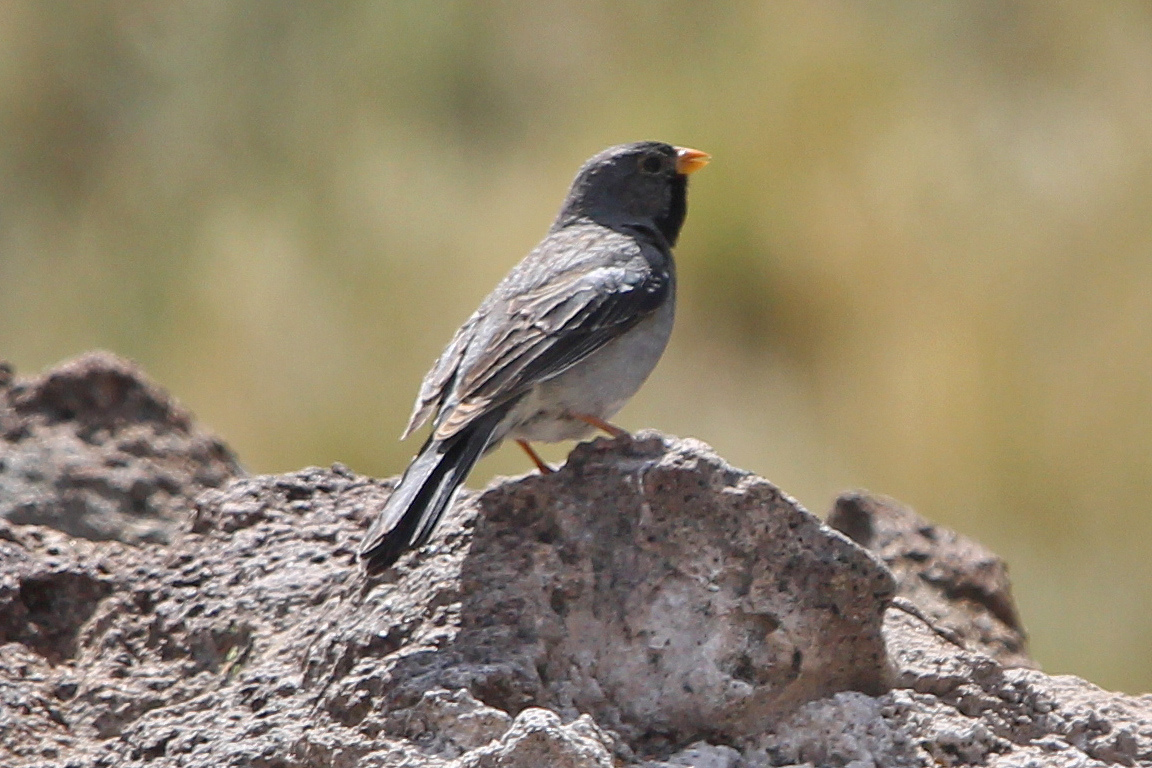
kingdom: Animalia
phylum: Chordata
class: Aves
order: Passeriformes
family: Thraupidae
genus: Rhopospina
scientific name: Rhopospina fruticeti
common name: Mourning sierra finch
